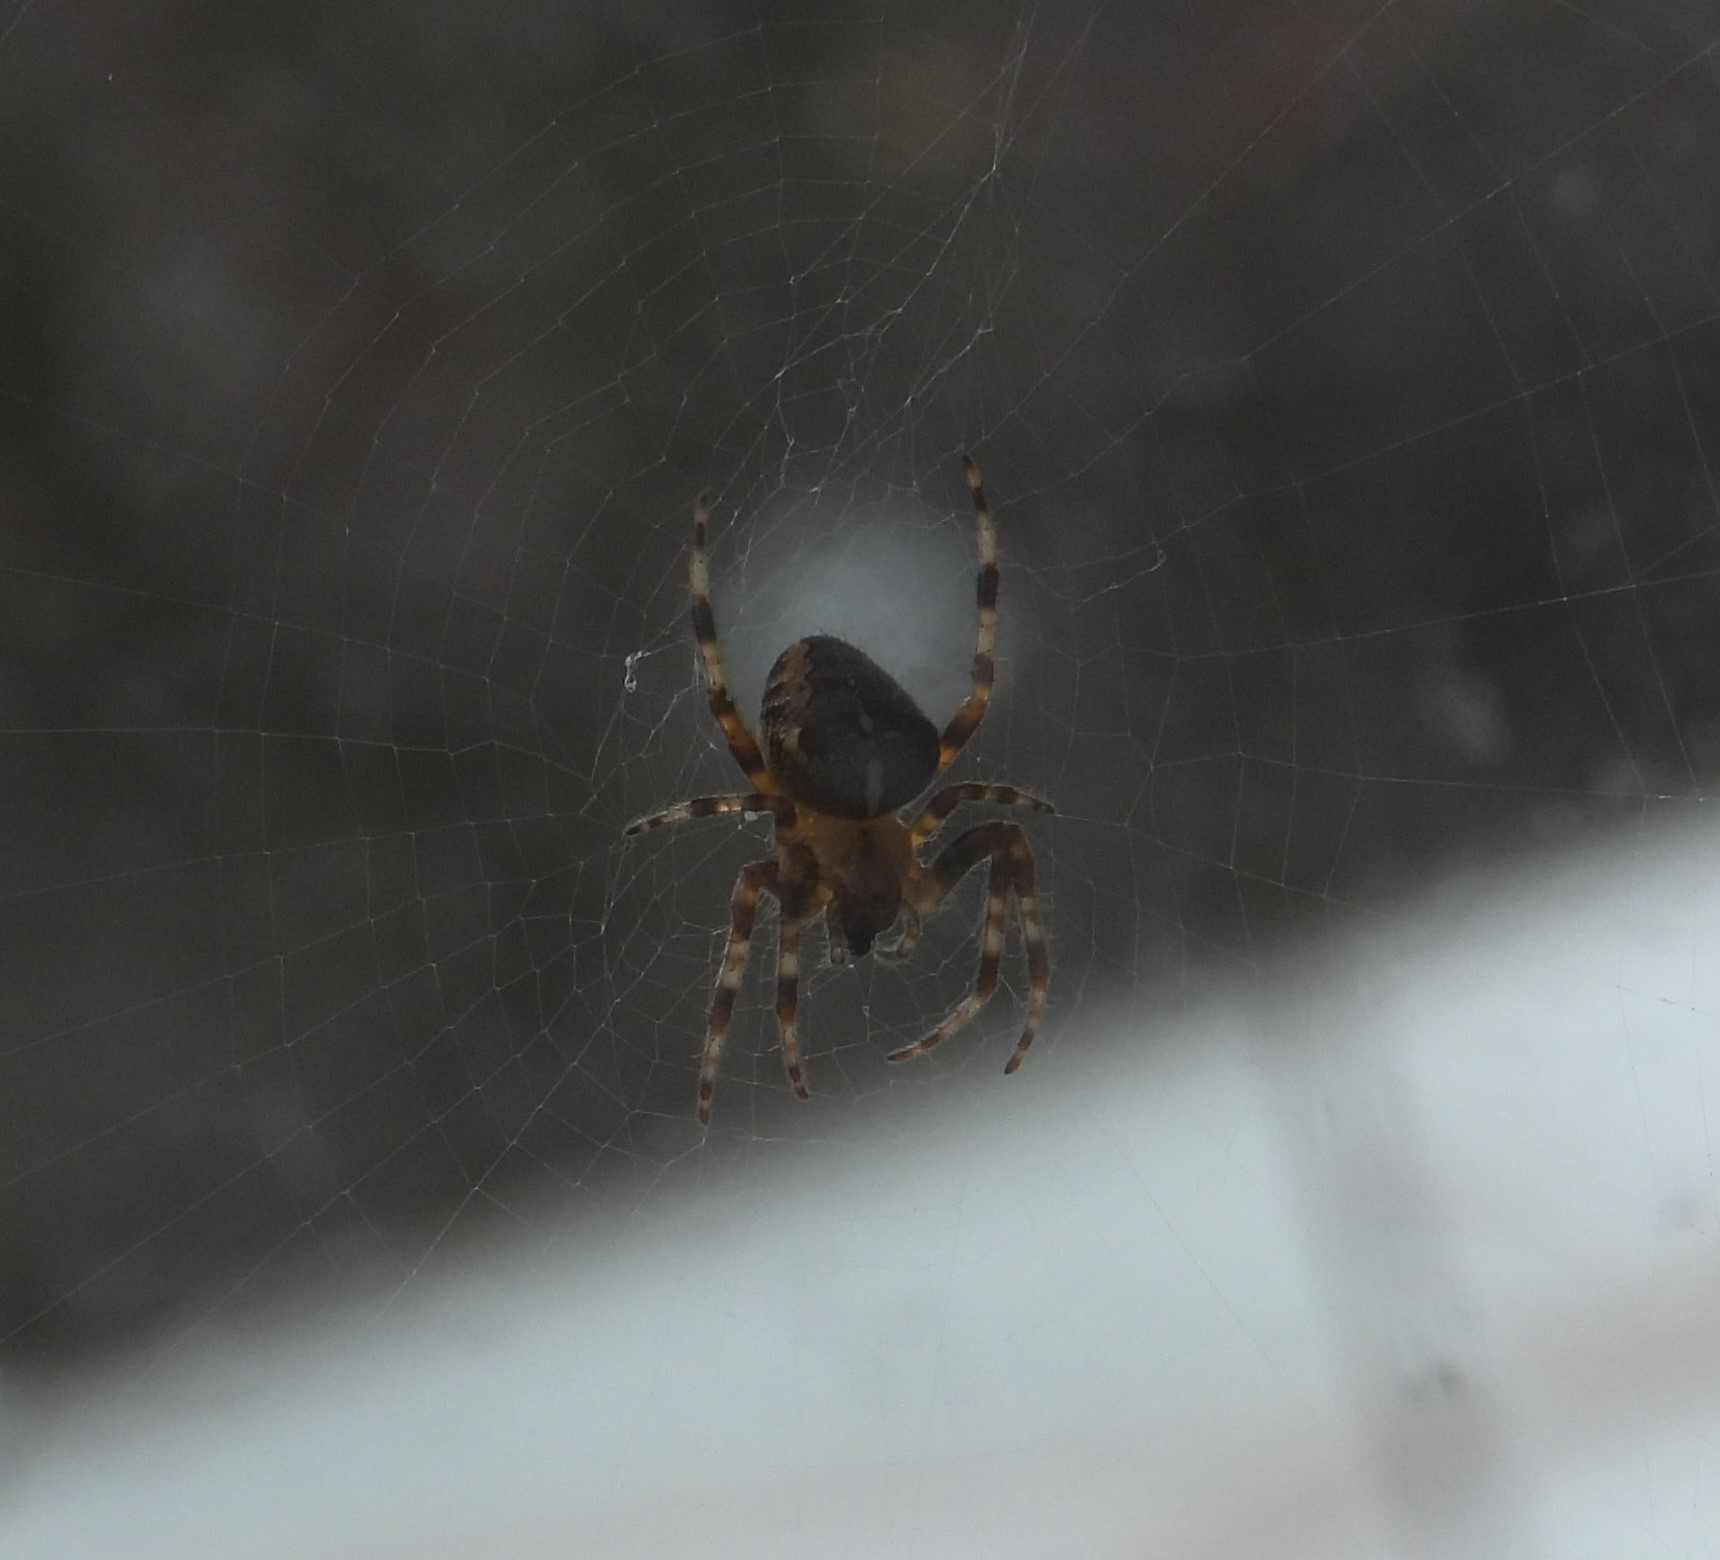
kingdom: Animalia
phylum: Arthropoda
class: Arachnida
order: Araneae
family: Araneidae
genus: Araneus
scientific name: Araneus diadematus
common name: Cross orbweaver
